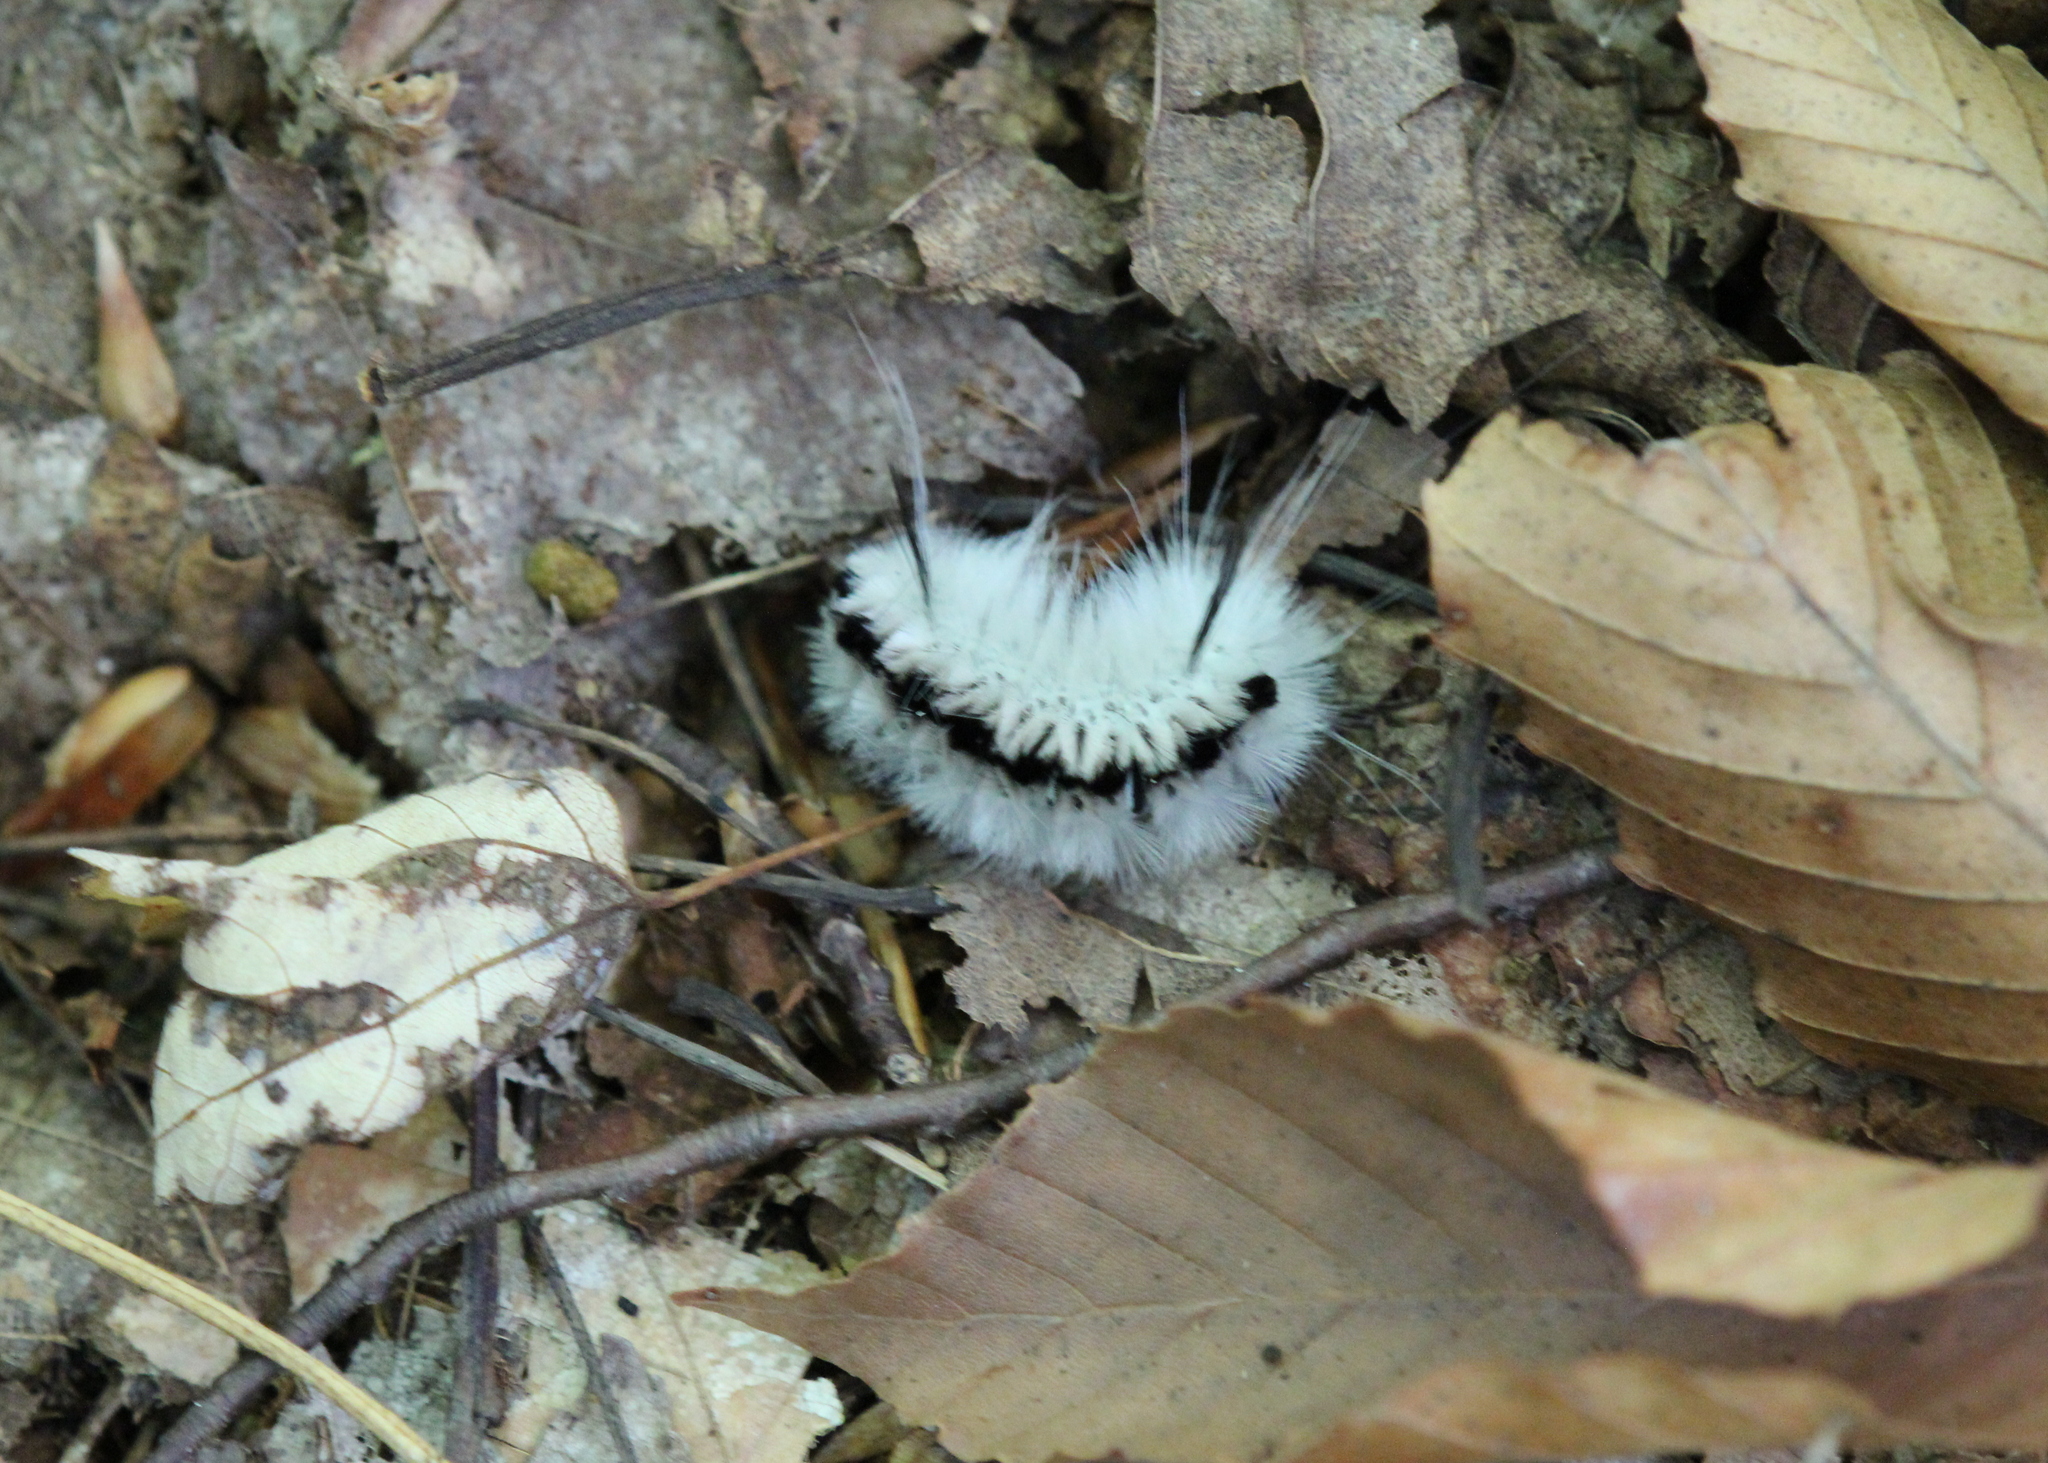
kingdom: Animalia
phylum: Arthropoda
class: Insecta
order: Lepidoptera
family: Erebidae
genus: Lophocampa
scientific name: Lophocampa caryae
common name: Hickory tussock moth
